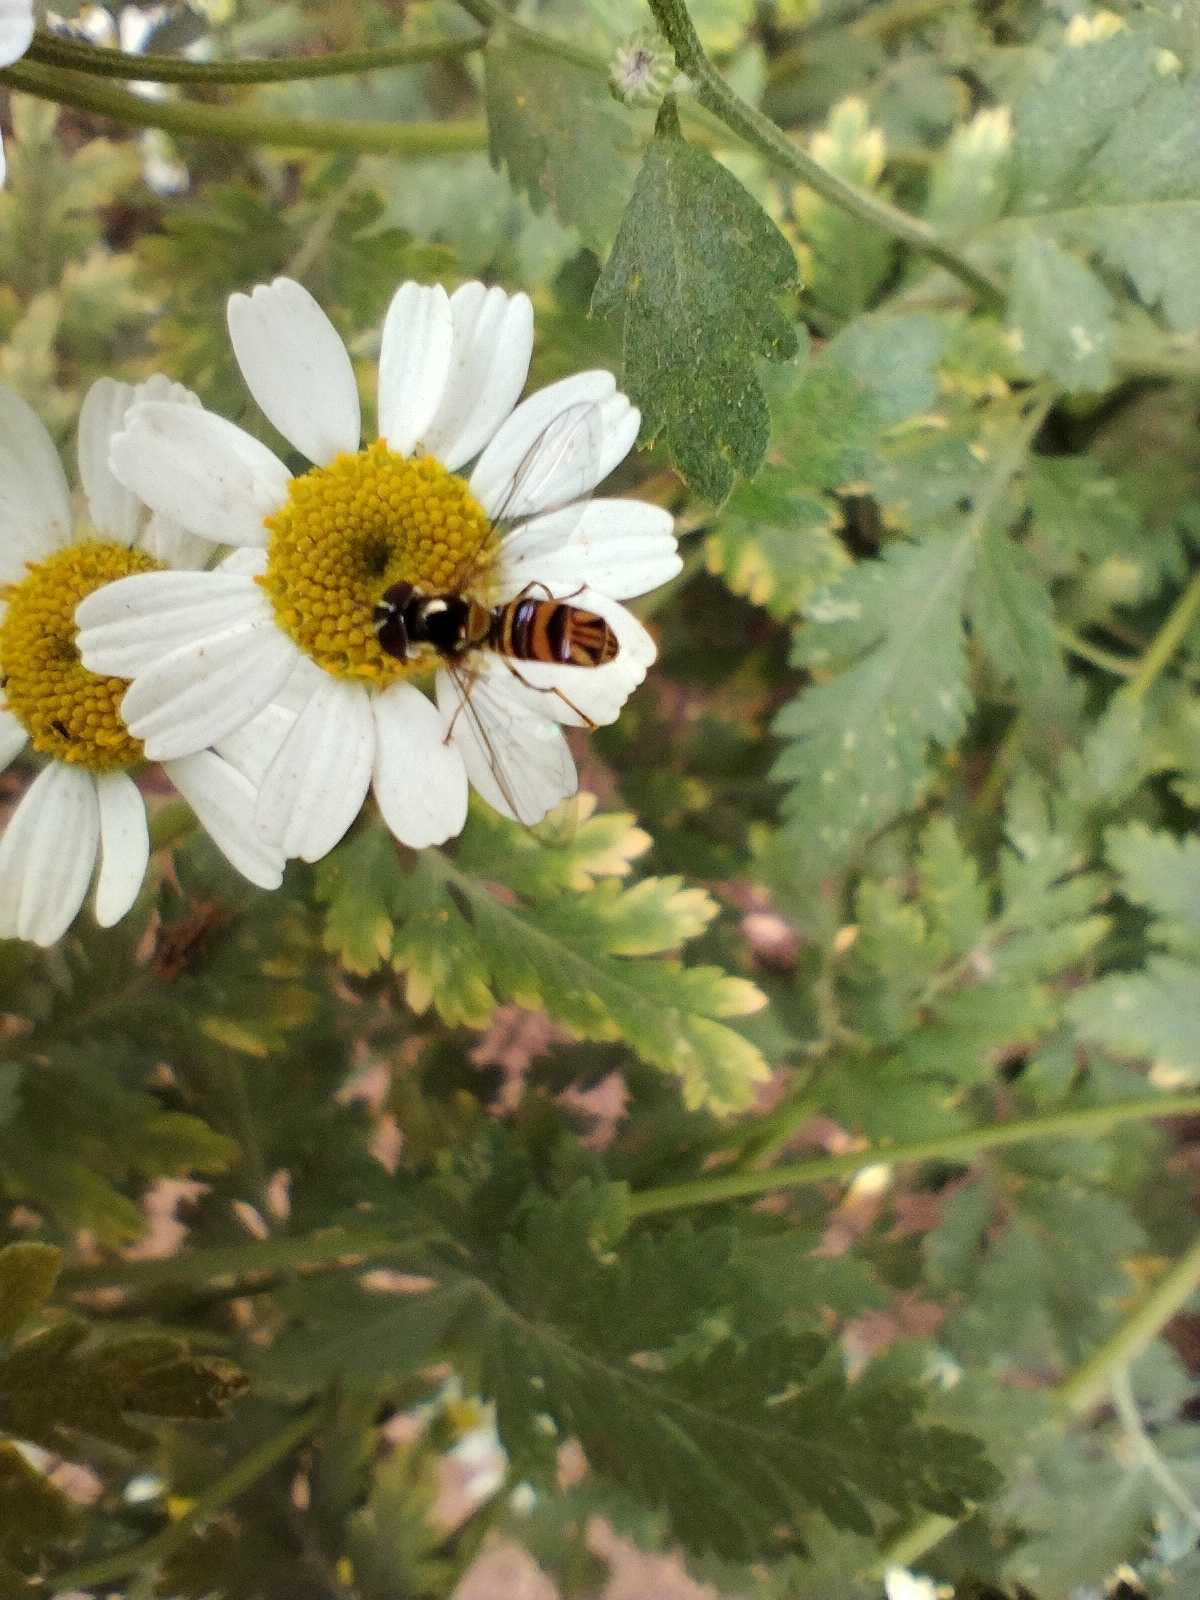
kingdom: Animalia
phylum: Arthropoda
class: Insecta
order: Diptera
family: Syrphidae
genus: Allograpta
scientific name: Allograpta obliqua
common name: Common oblique syrphid
